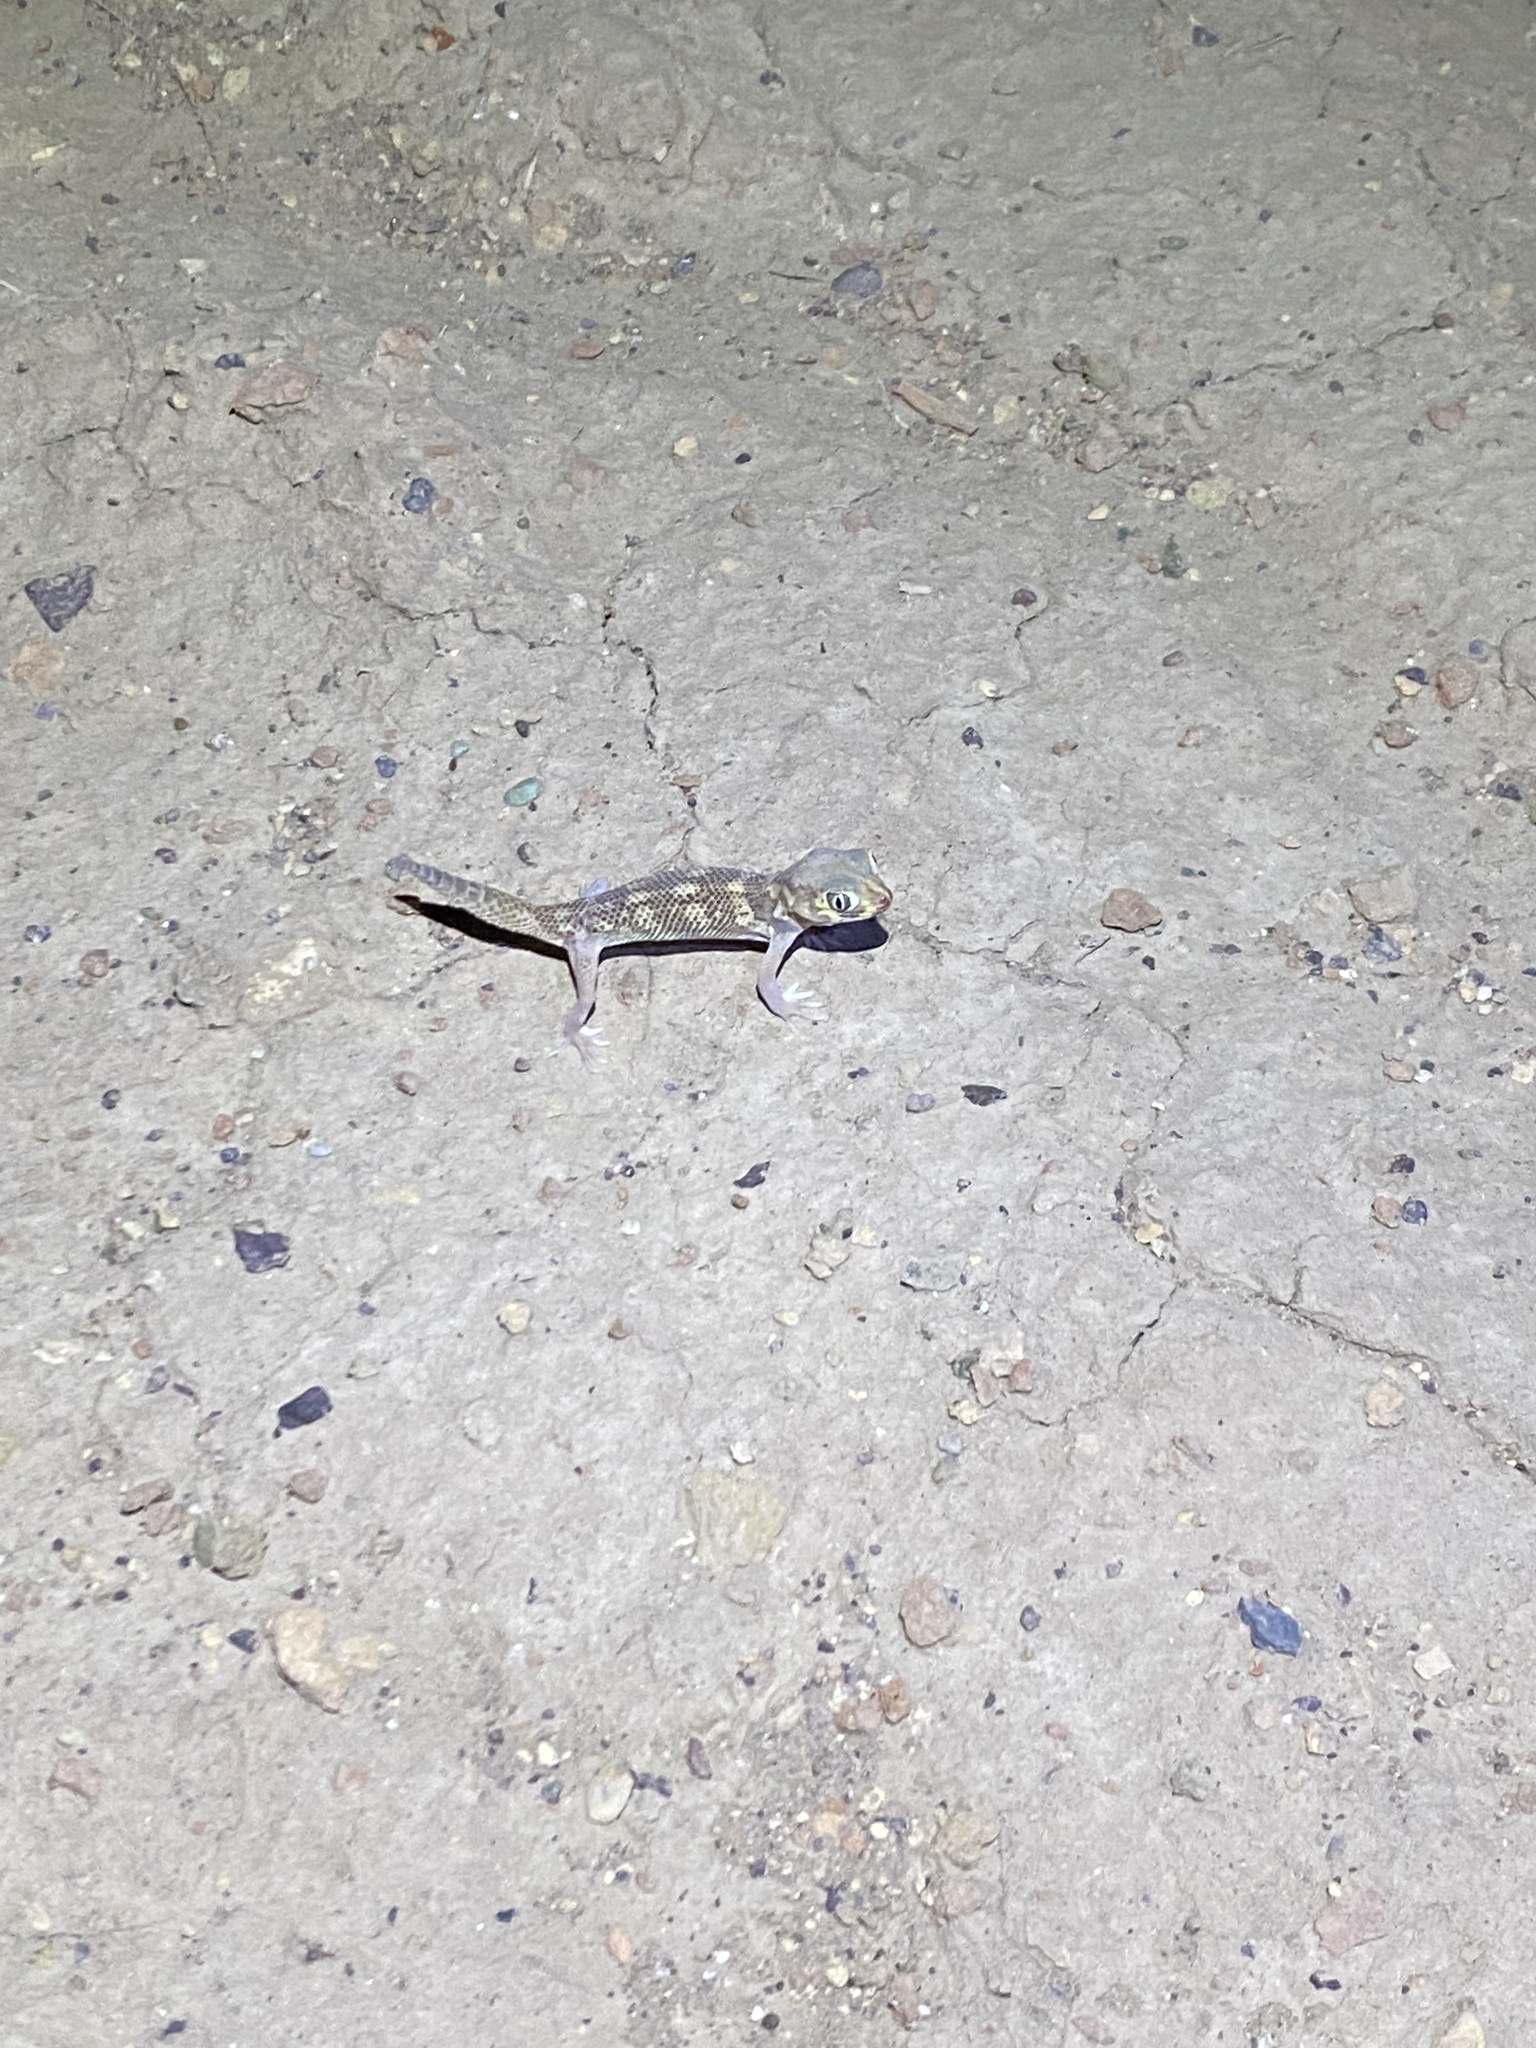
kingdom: Animalia
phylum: Chordata
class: Squamata
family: Sphaerodactylidae
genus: Teratoscincus
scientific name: Teratoscincus bedriagai
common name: Bedriaga's plate-tailed gecko
